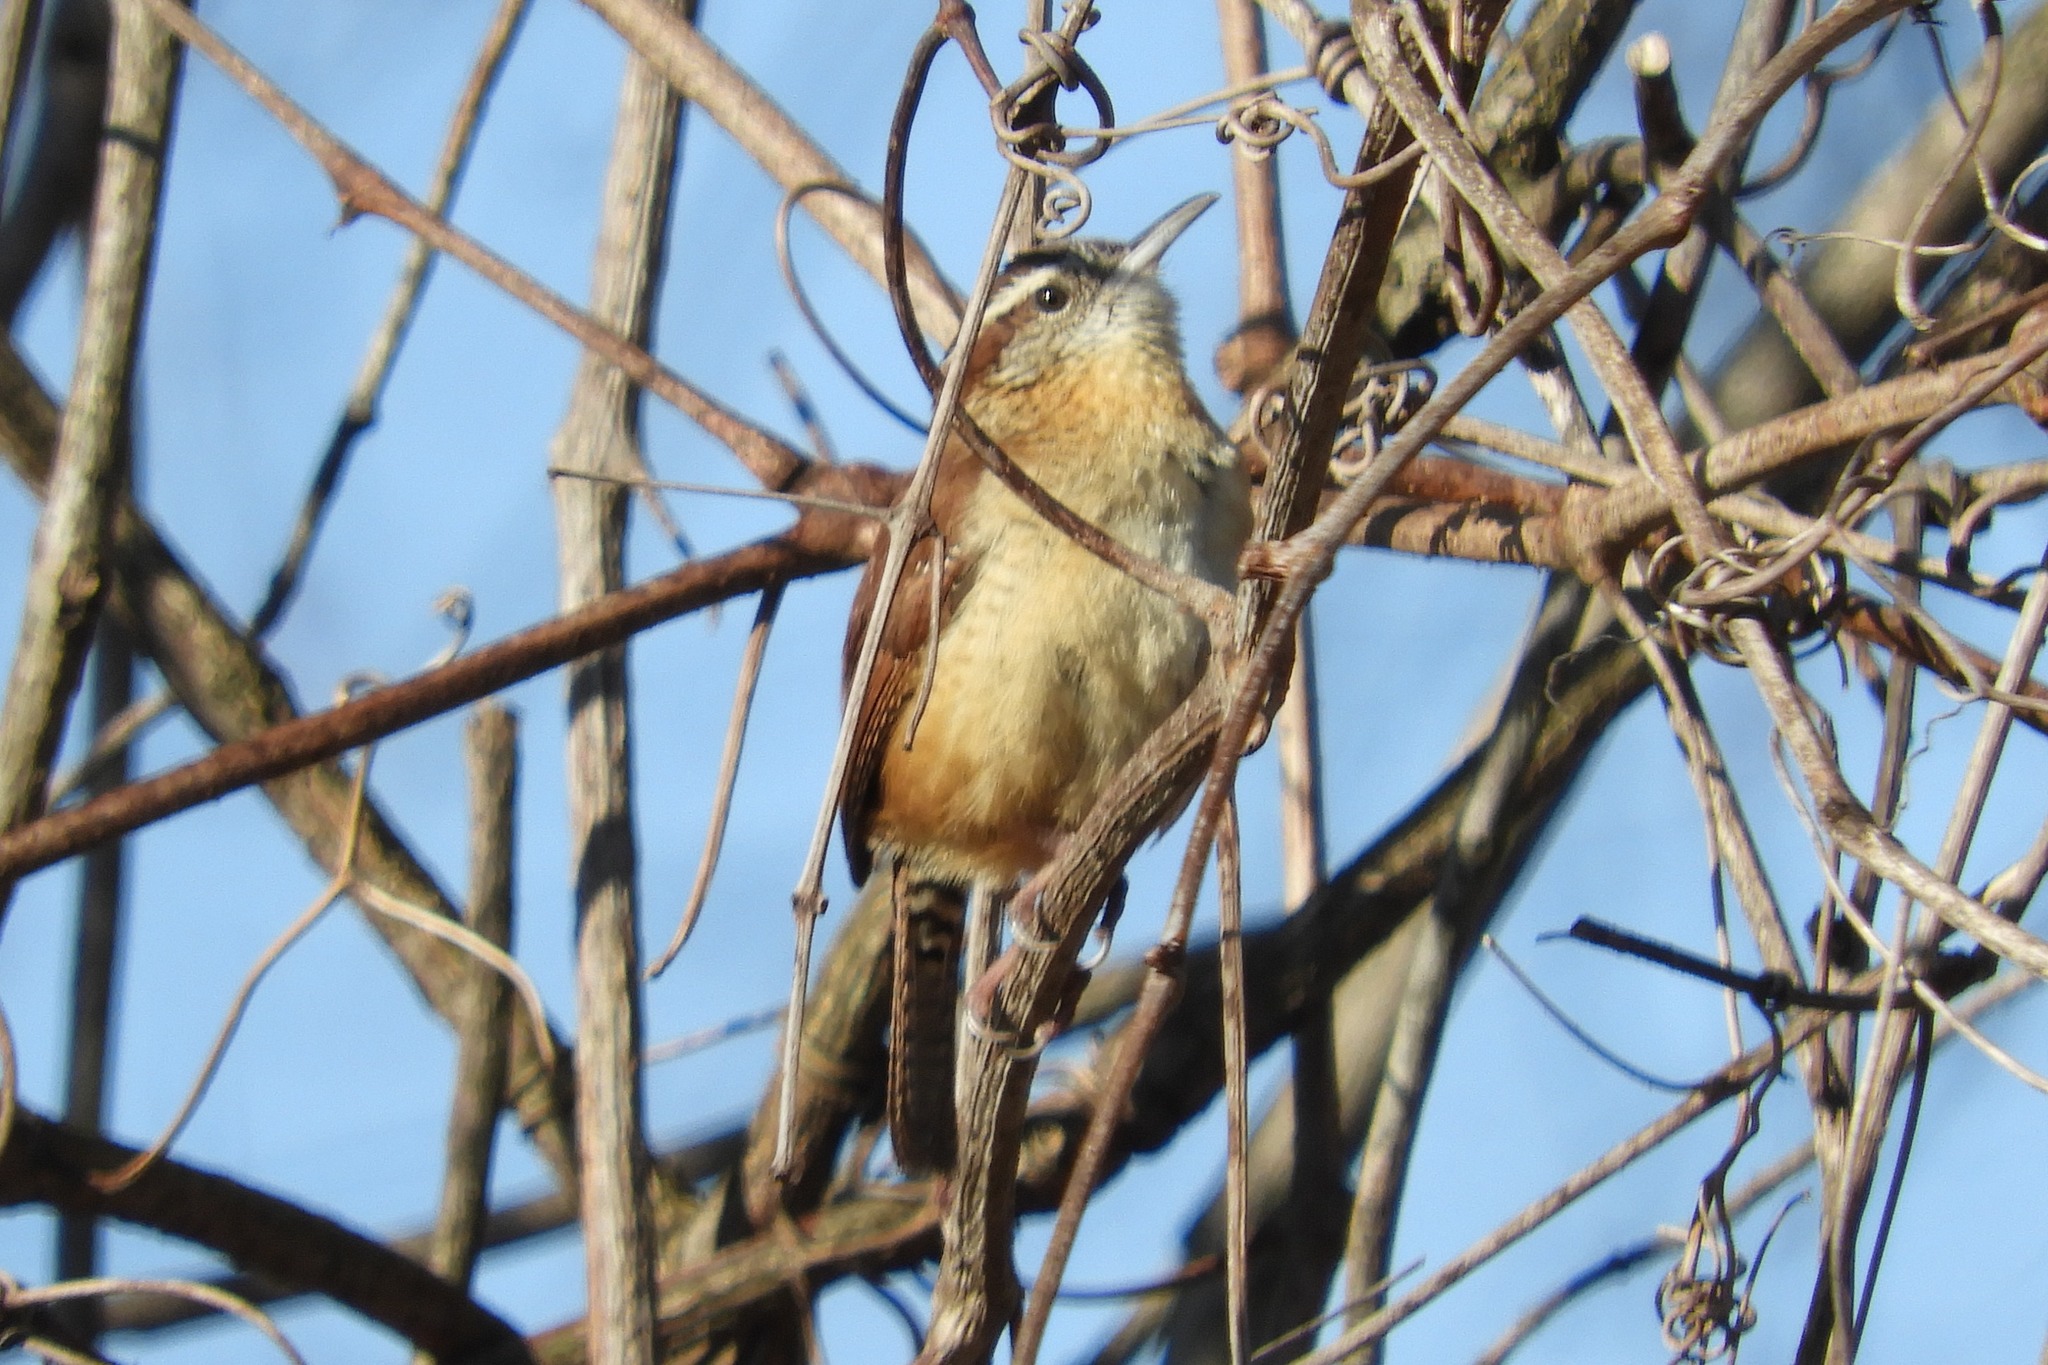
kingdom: Animalia
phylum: Chordata
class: Aves
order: Passeriformes
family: Troglodytidae
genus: Thryothorus
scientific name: Thryothorus ludovicianus
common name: Carolina wren
